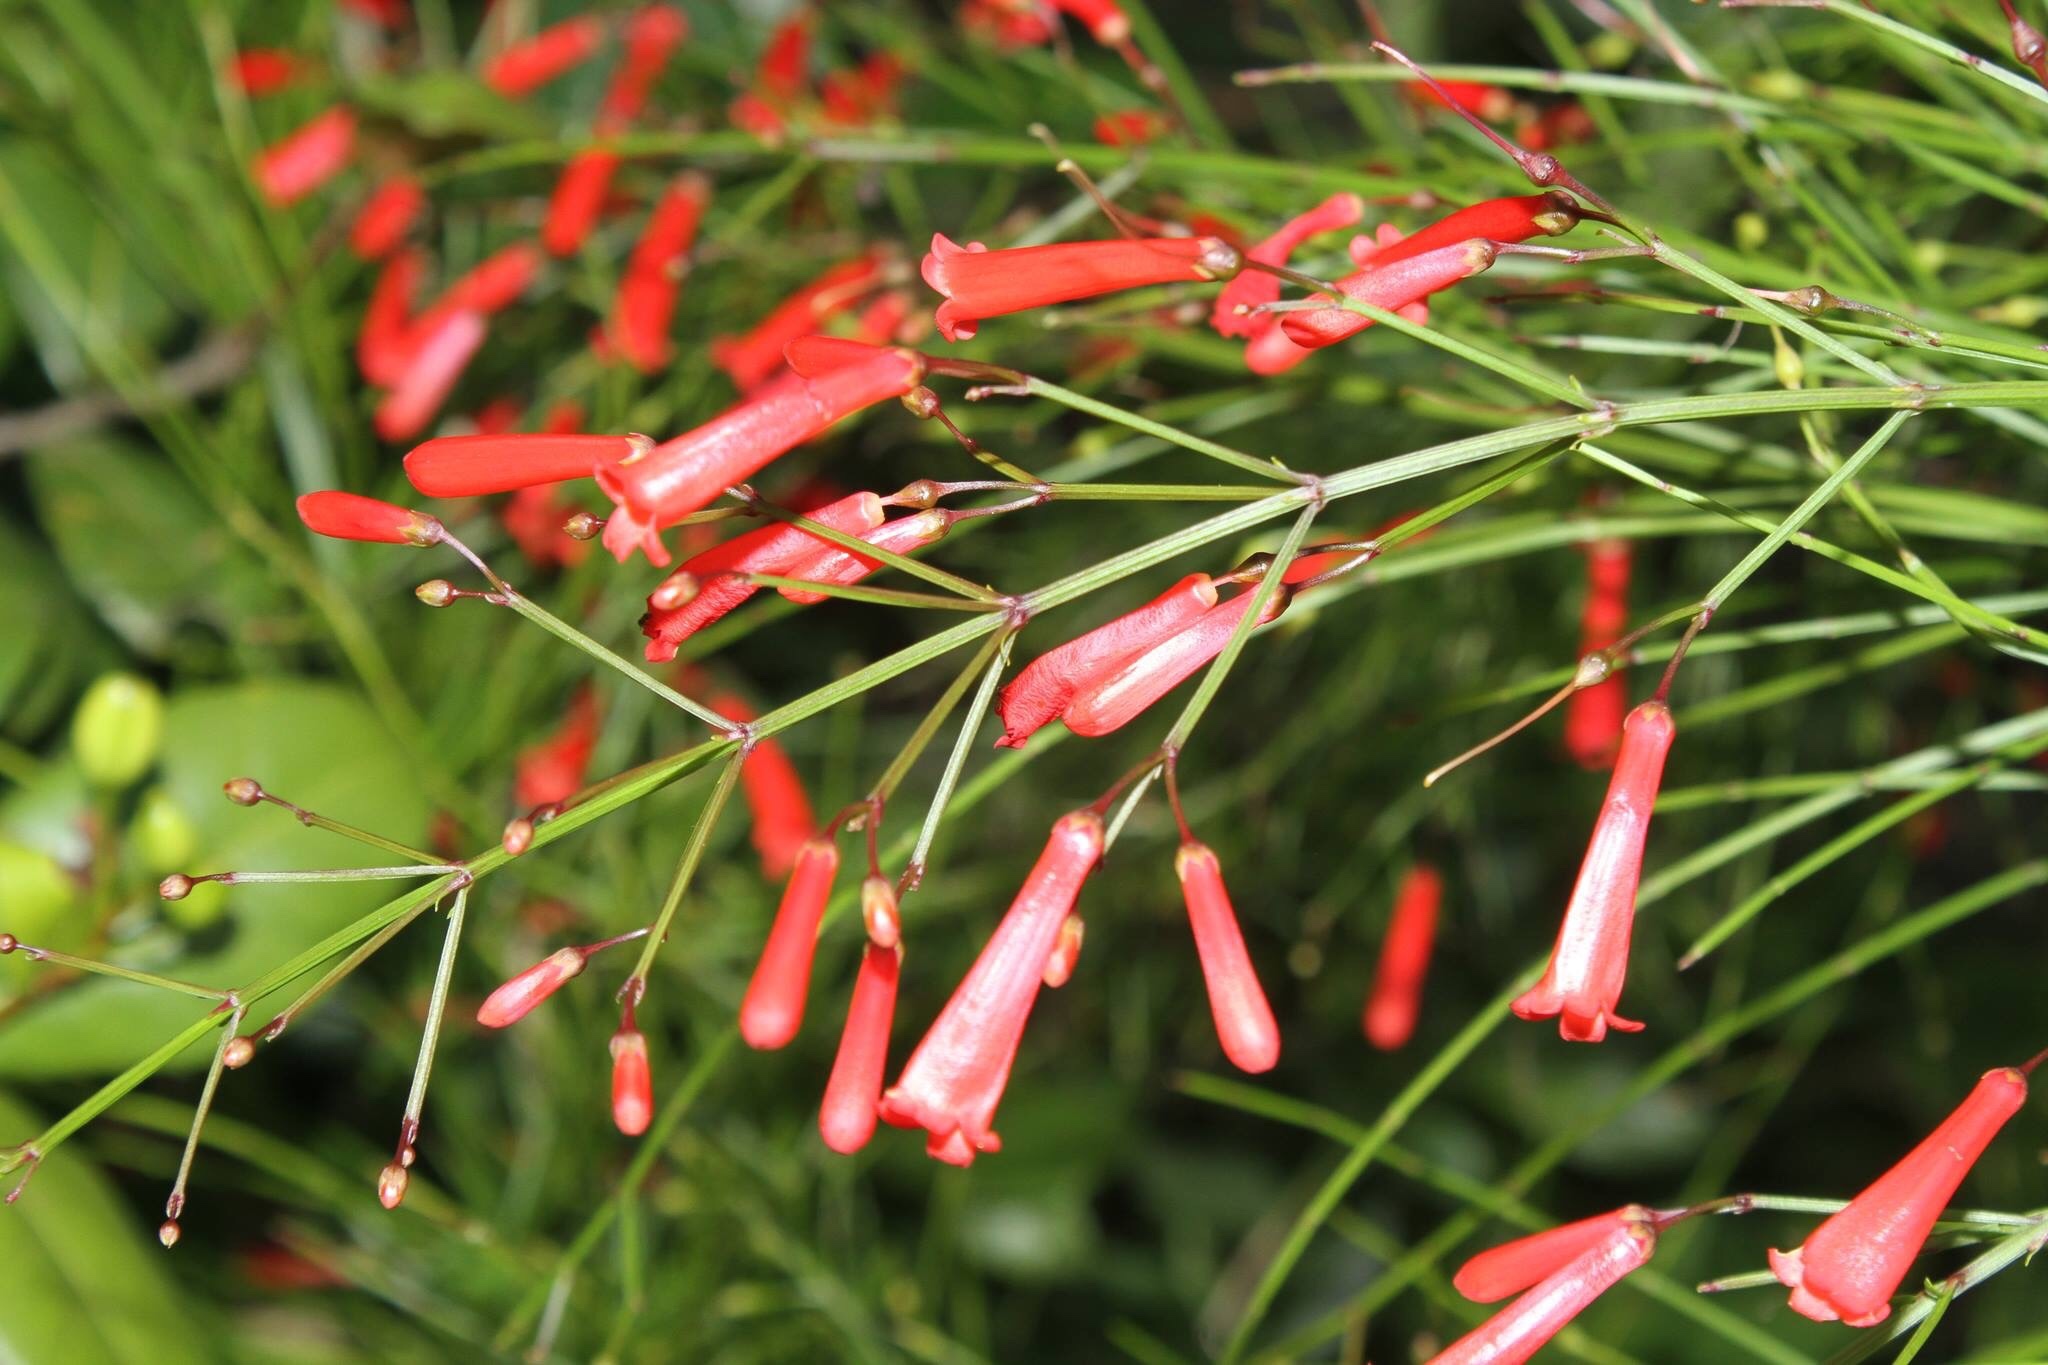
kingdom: Plantae
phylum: Tracheophyta
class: Magnoliopsida
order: Lamiales
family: Plantaginaceae
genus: Russelia
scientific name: Russelia equisetiformis
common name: Fountainbush
